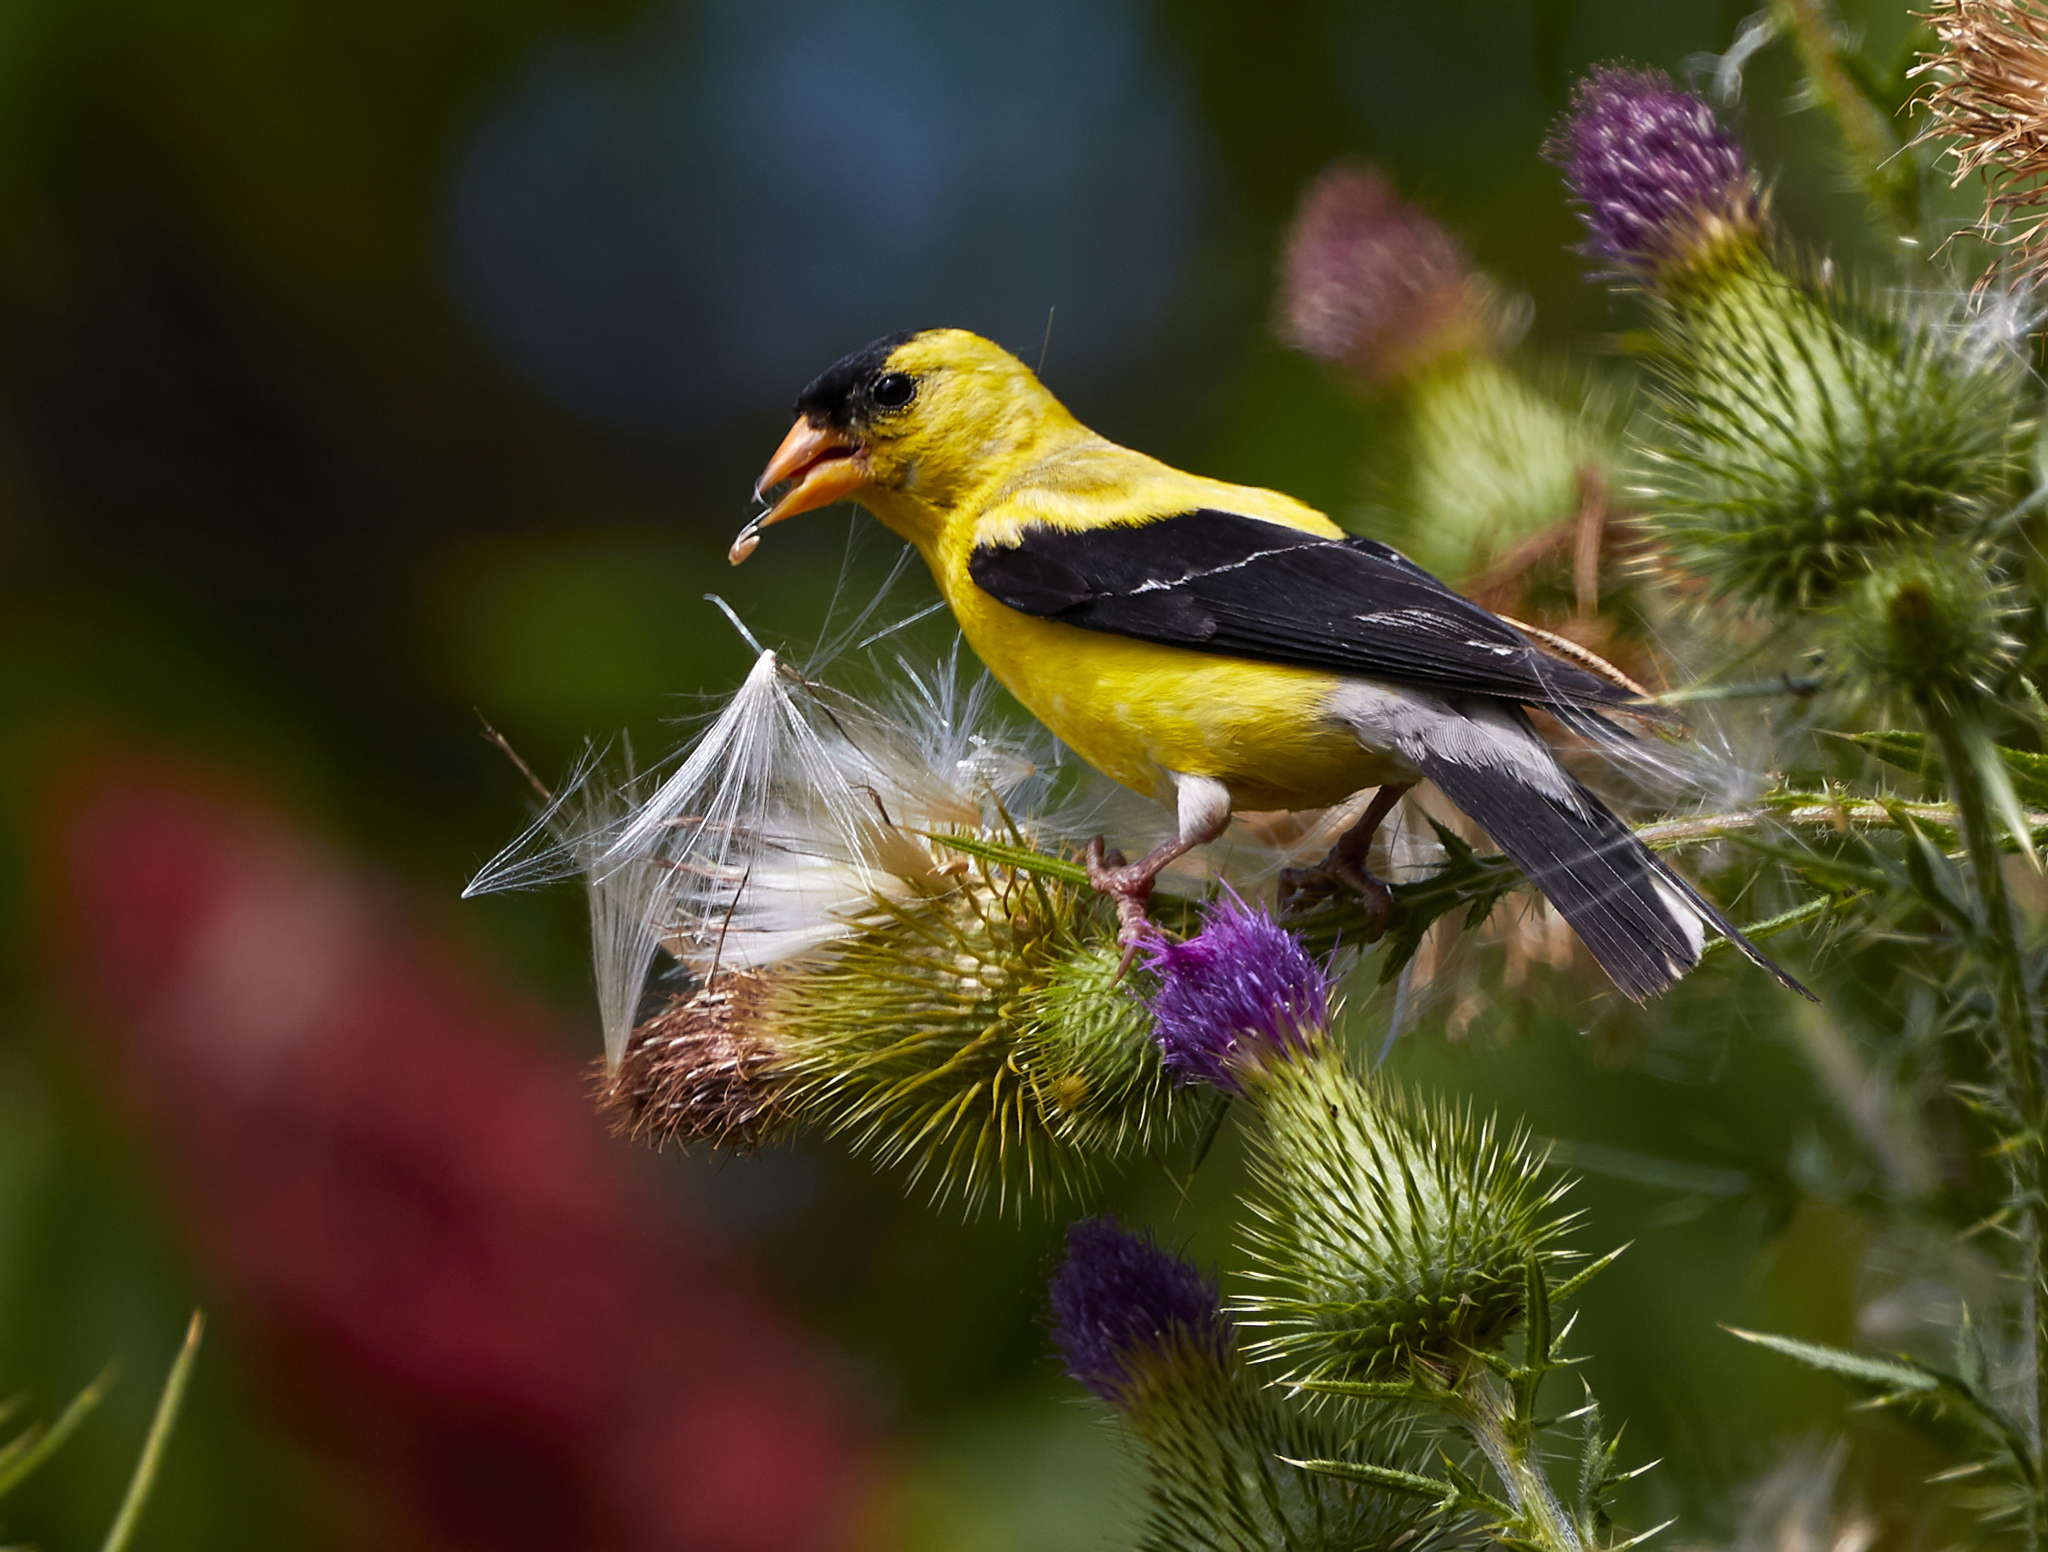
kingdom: Animalia
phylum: Chordata
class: Aves
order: Passeriformes
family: Fringillidae
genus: Spinus
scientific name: Spinus tristis
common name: American goldfinch
